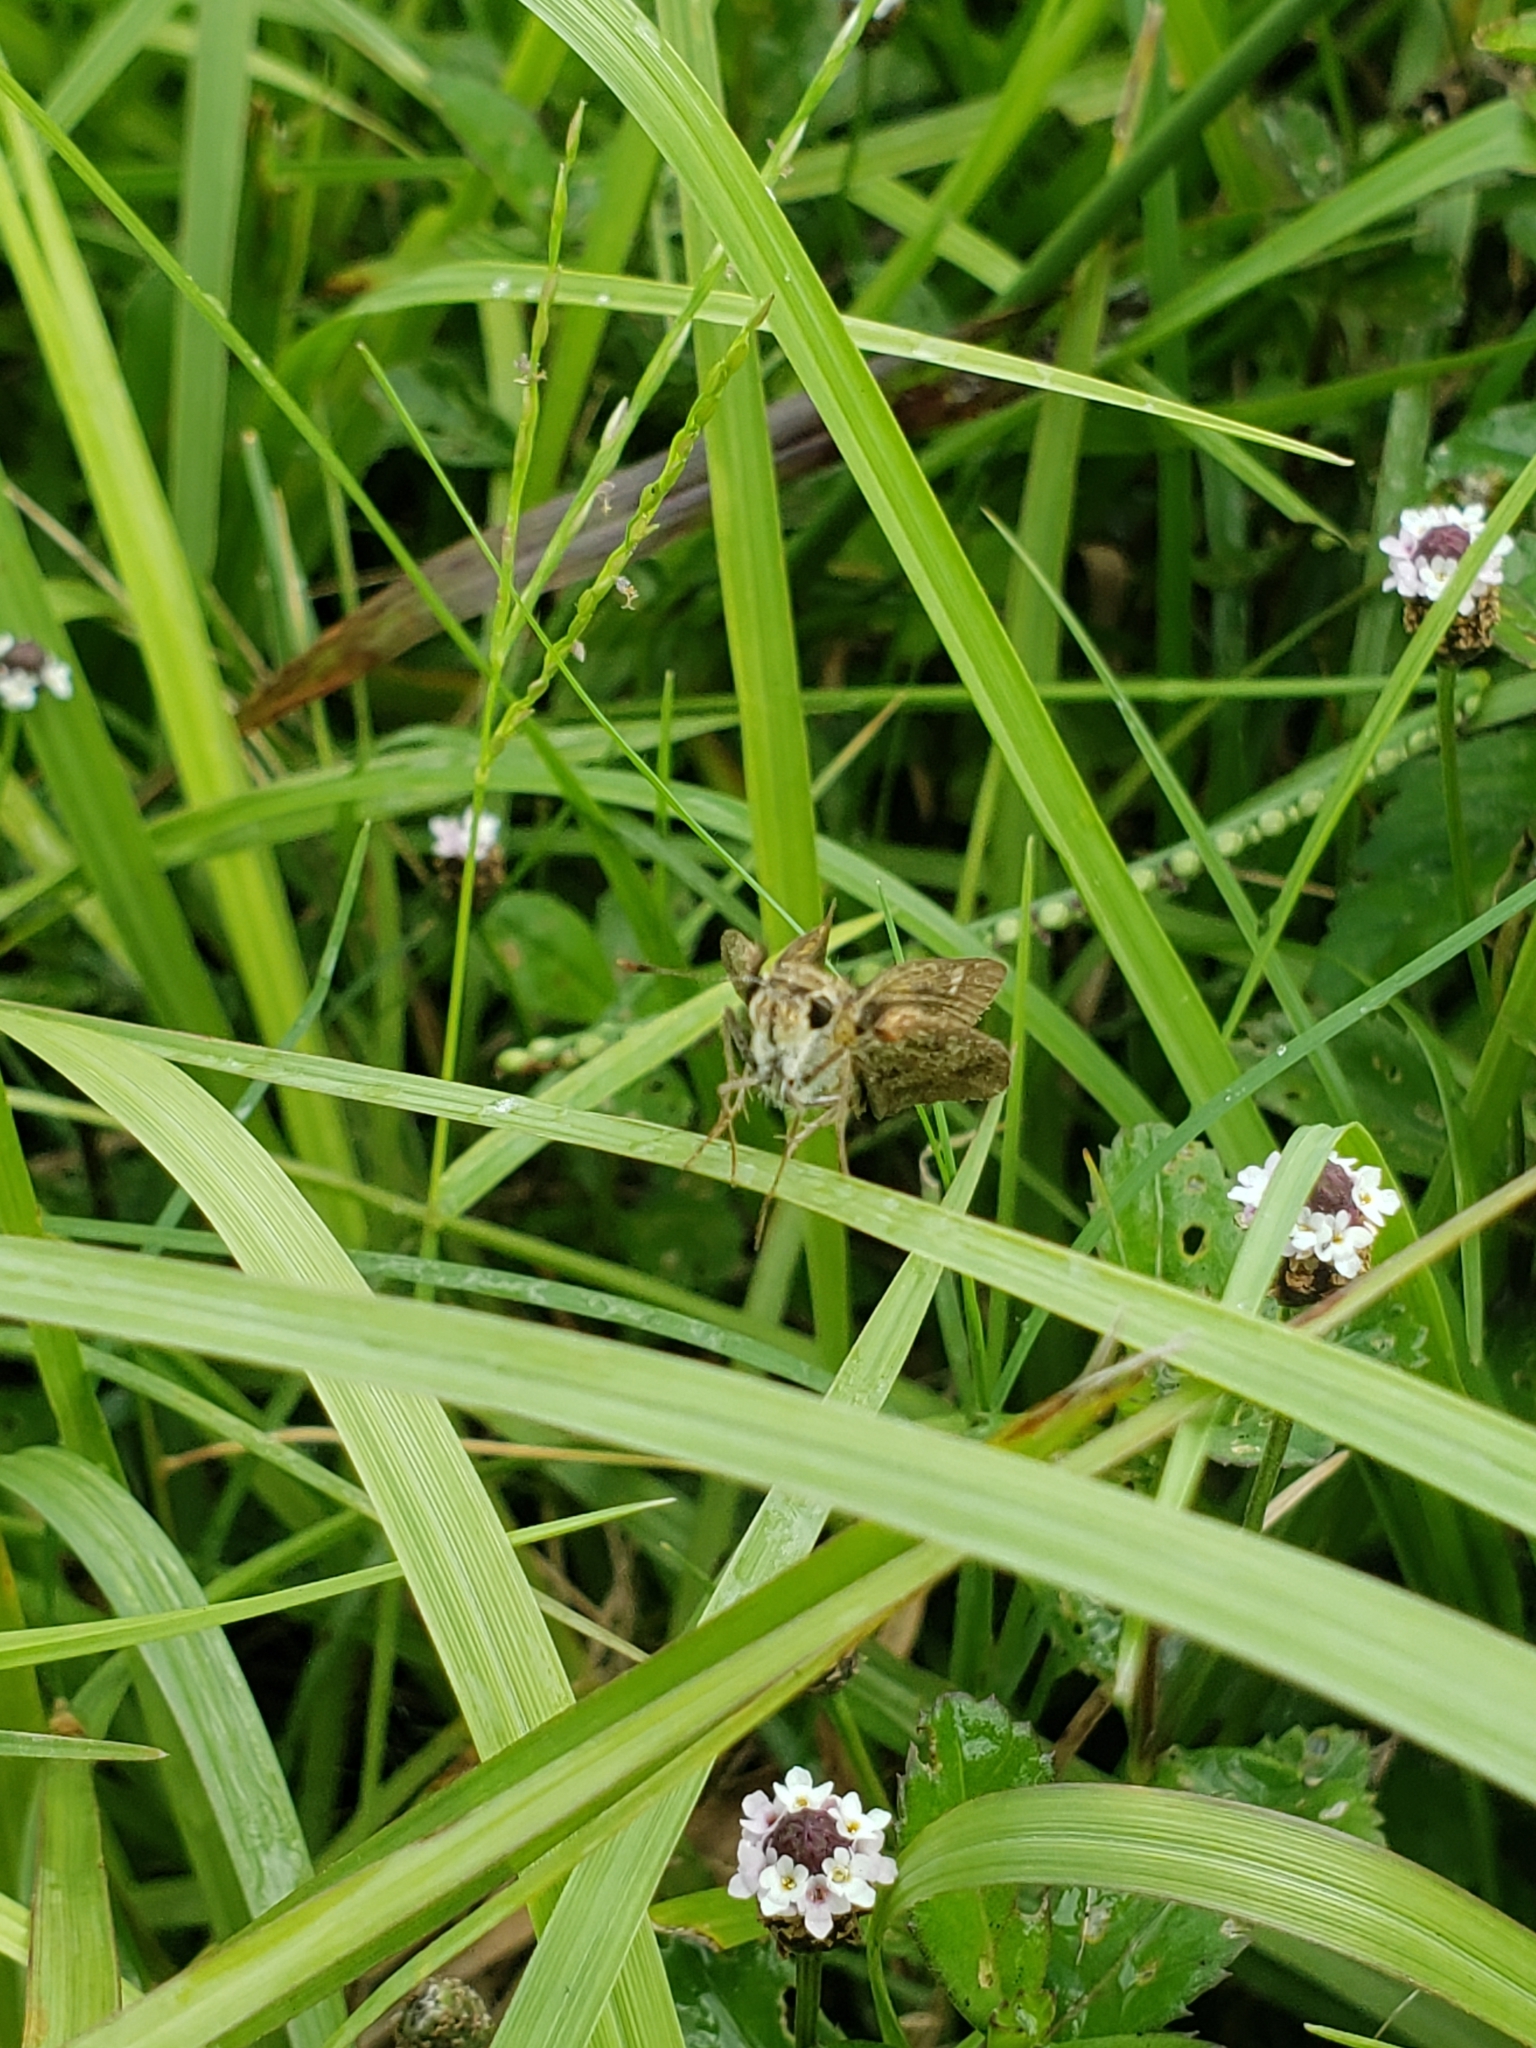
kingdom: Animalia
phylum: Arthropoda
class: Insecta
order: Lepidoptera
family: Hesperiidae
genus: Polites
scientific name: Polites vibex
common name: Whirlabout
